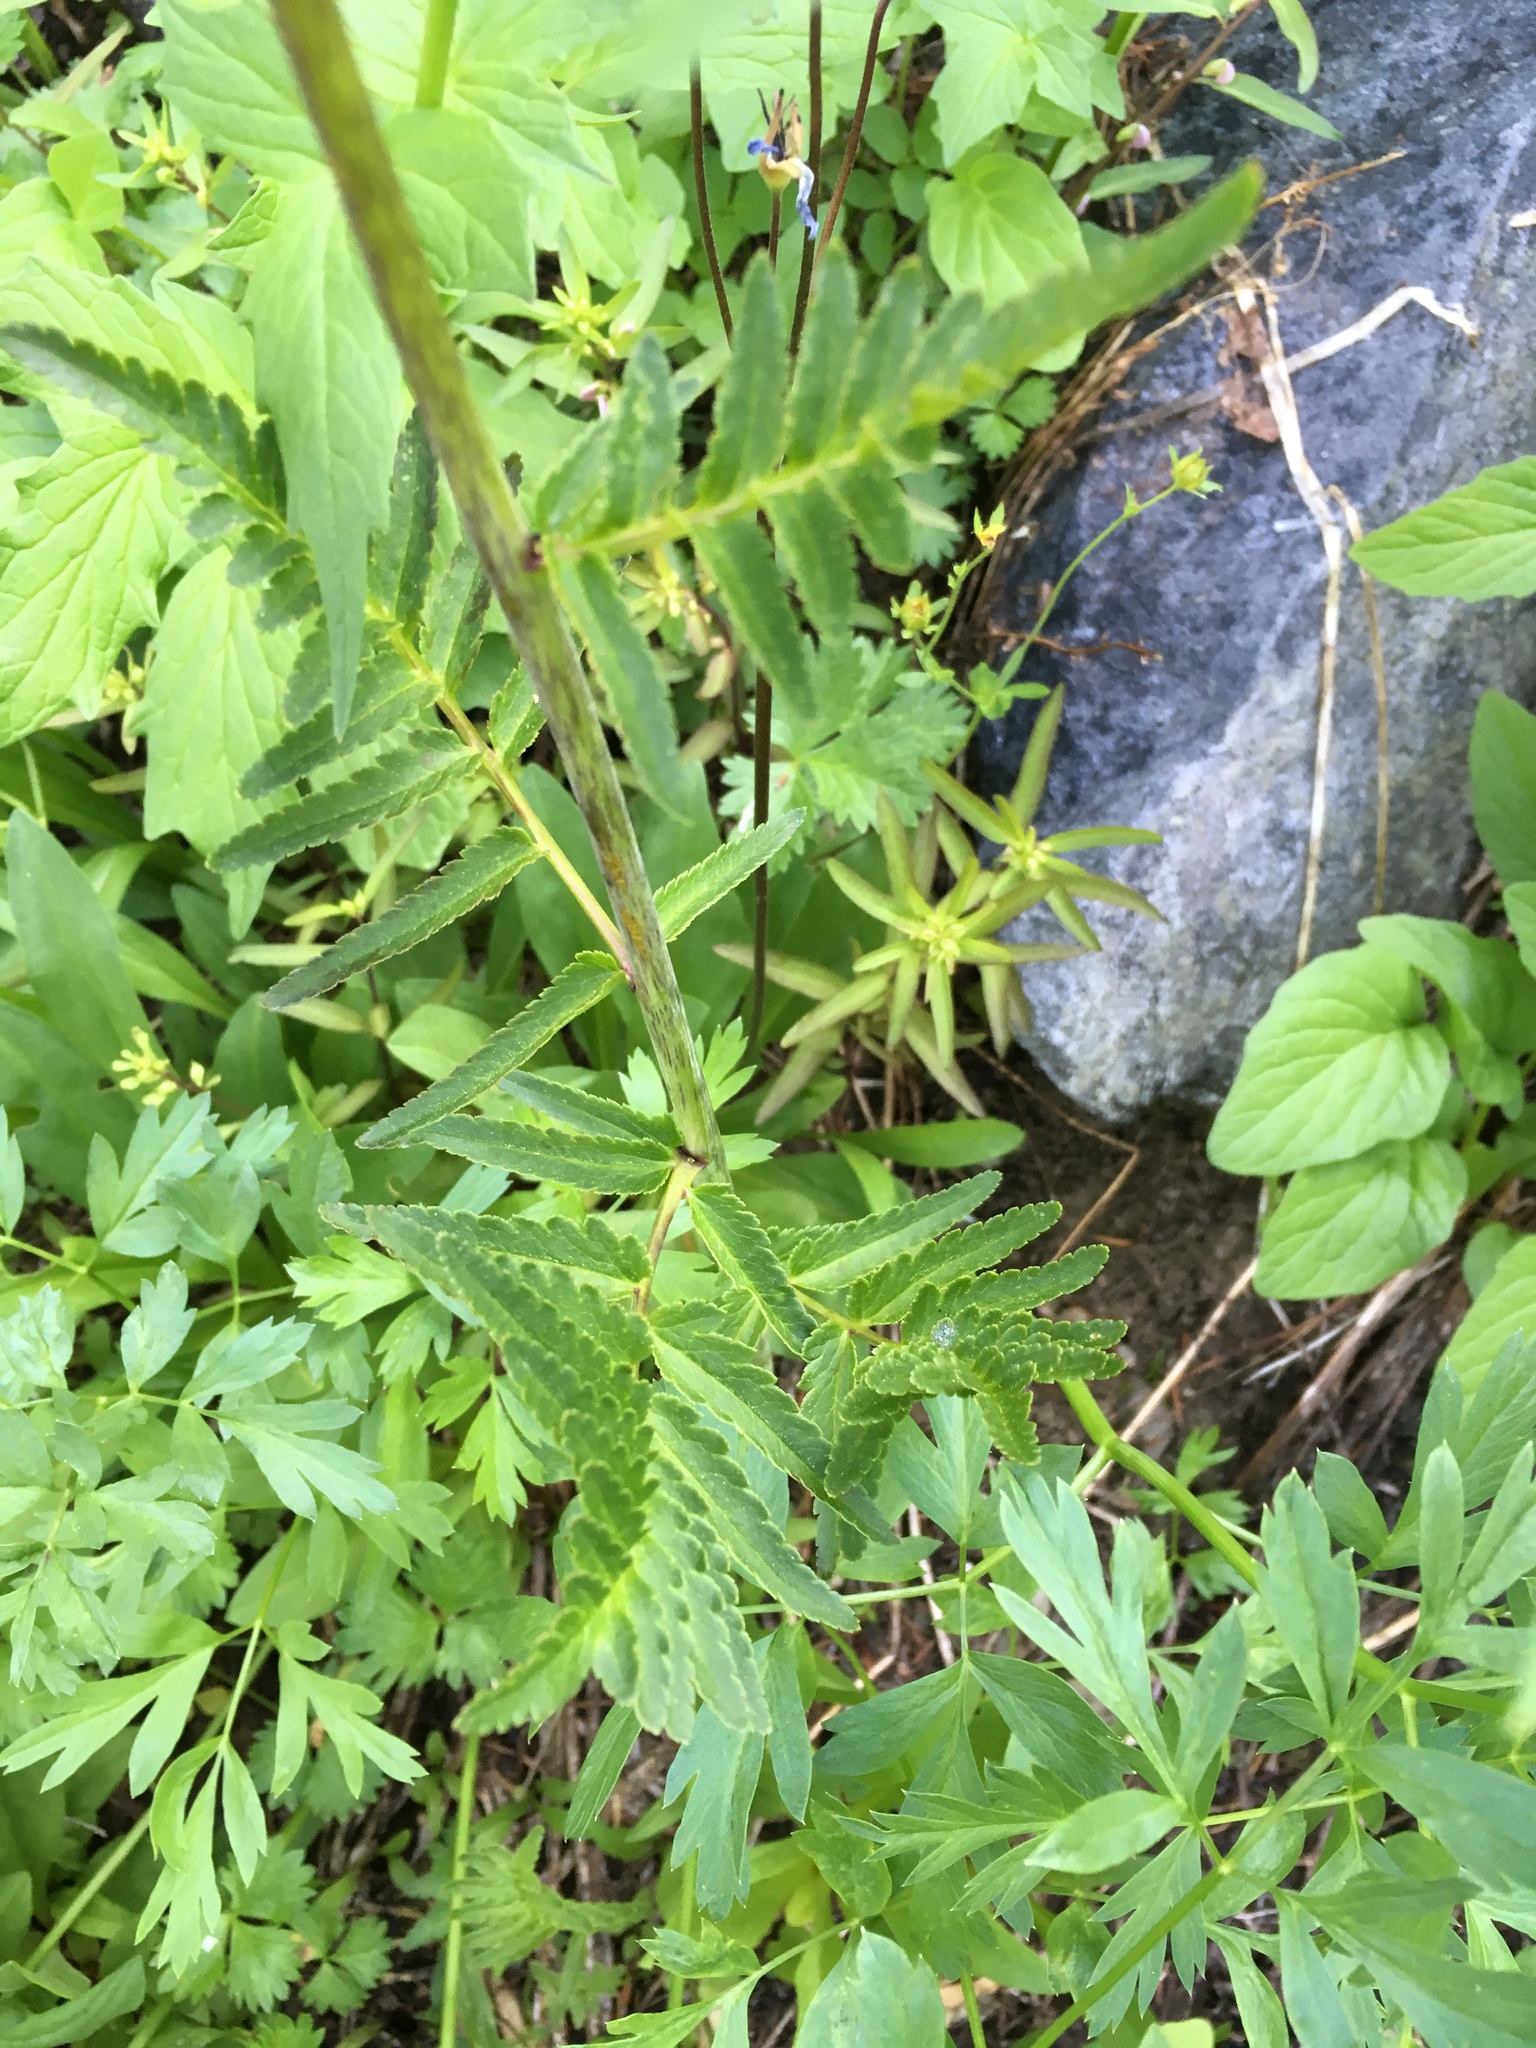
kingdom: Plantae
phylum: Tracheophyta
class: Magnoliopsida
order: Lamiales
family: Orobanchaceae
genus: Pedicularis
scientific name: Pedicularis bracteosa
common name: Bracted lousewort
